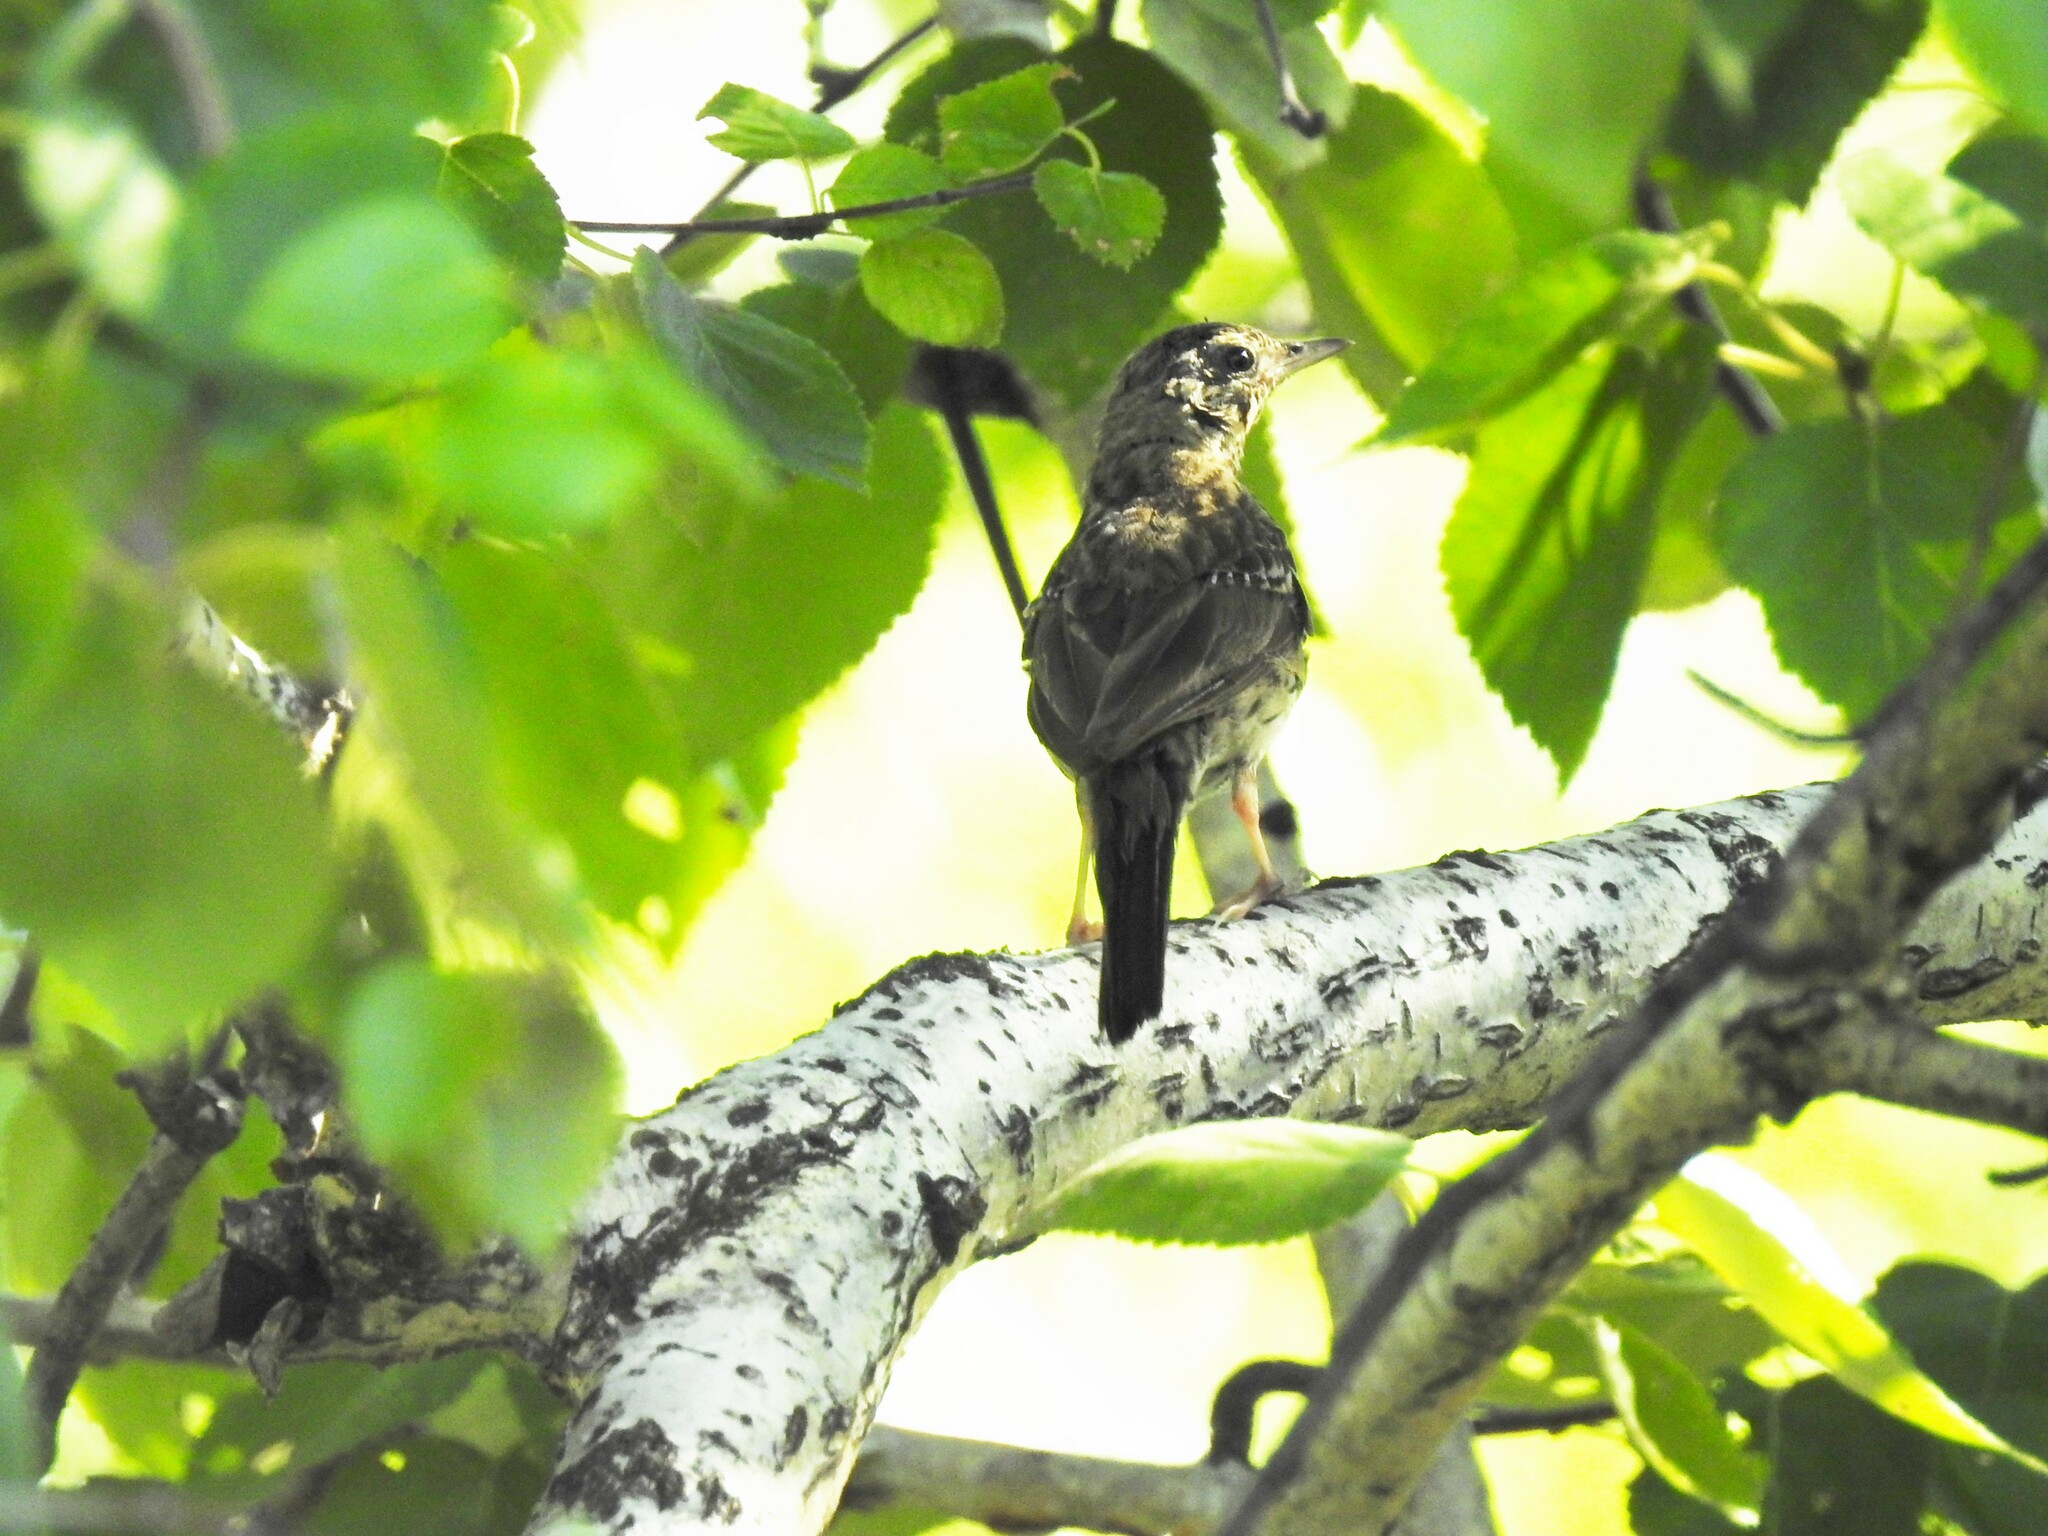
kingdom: Animalia
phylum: Chordata
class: Aves
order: Passeriformes
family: Motacillidae
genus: Anthus
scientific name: Anthus trivialis
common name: Tree pipit
